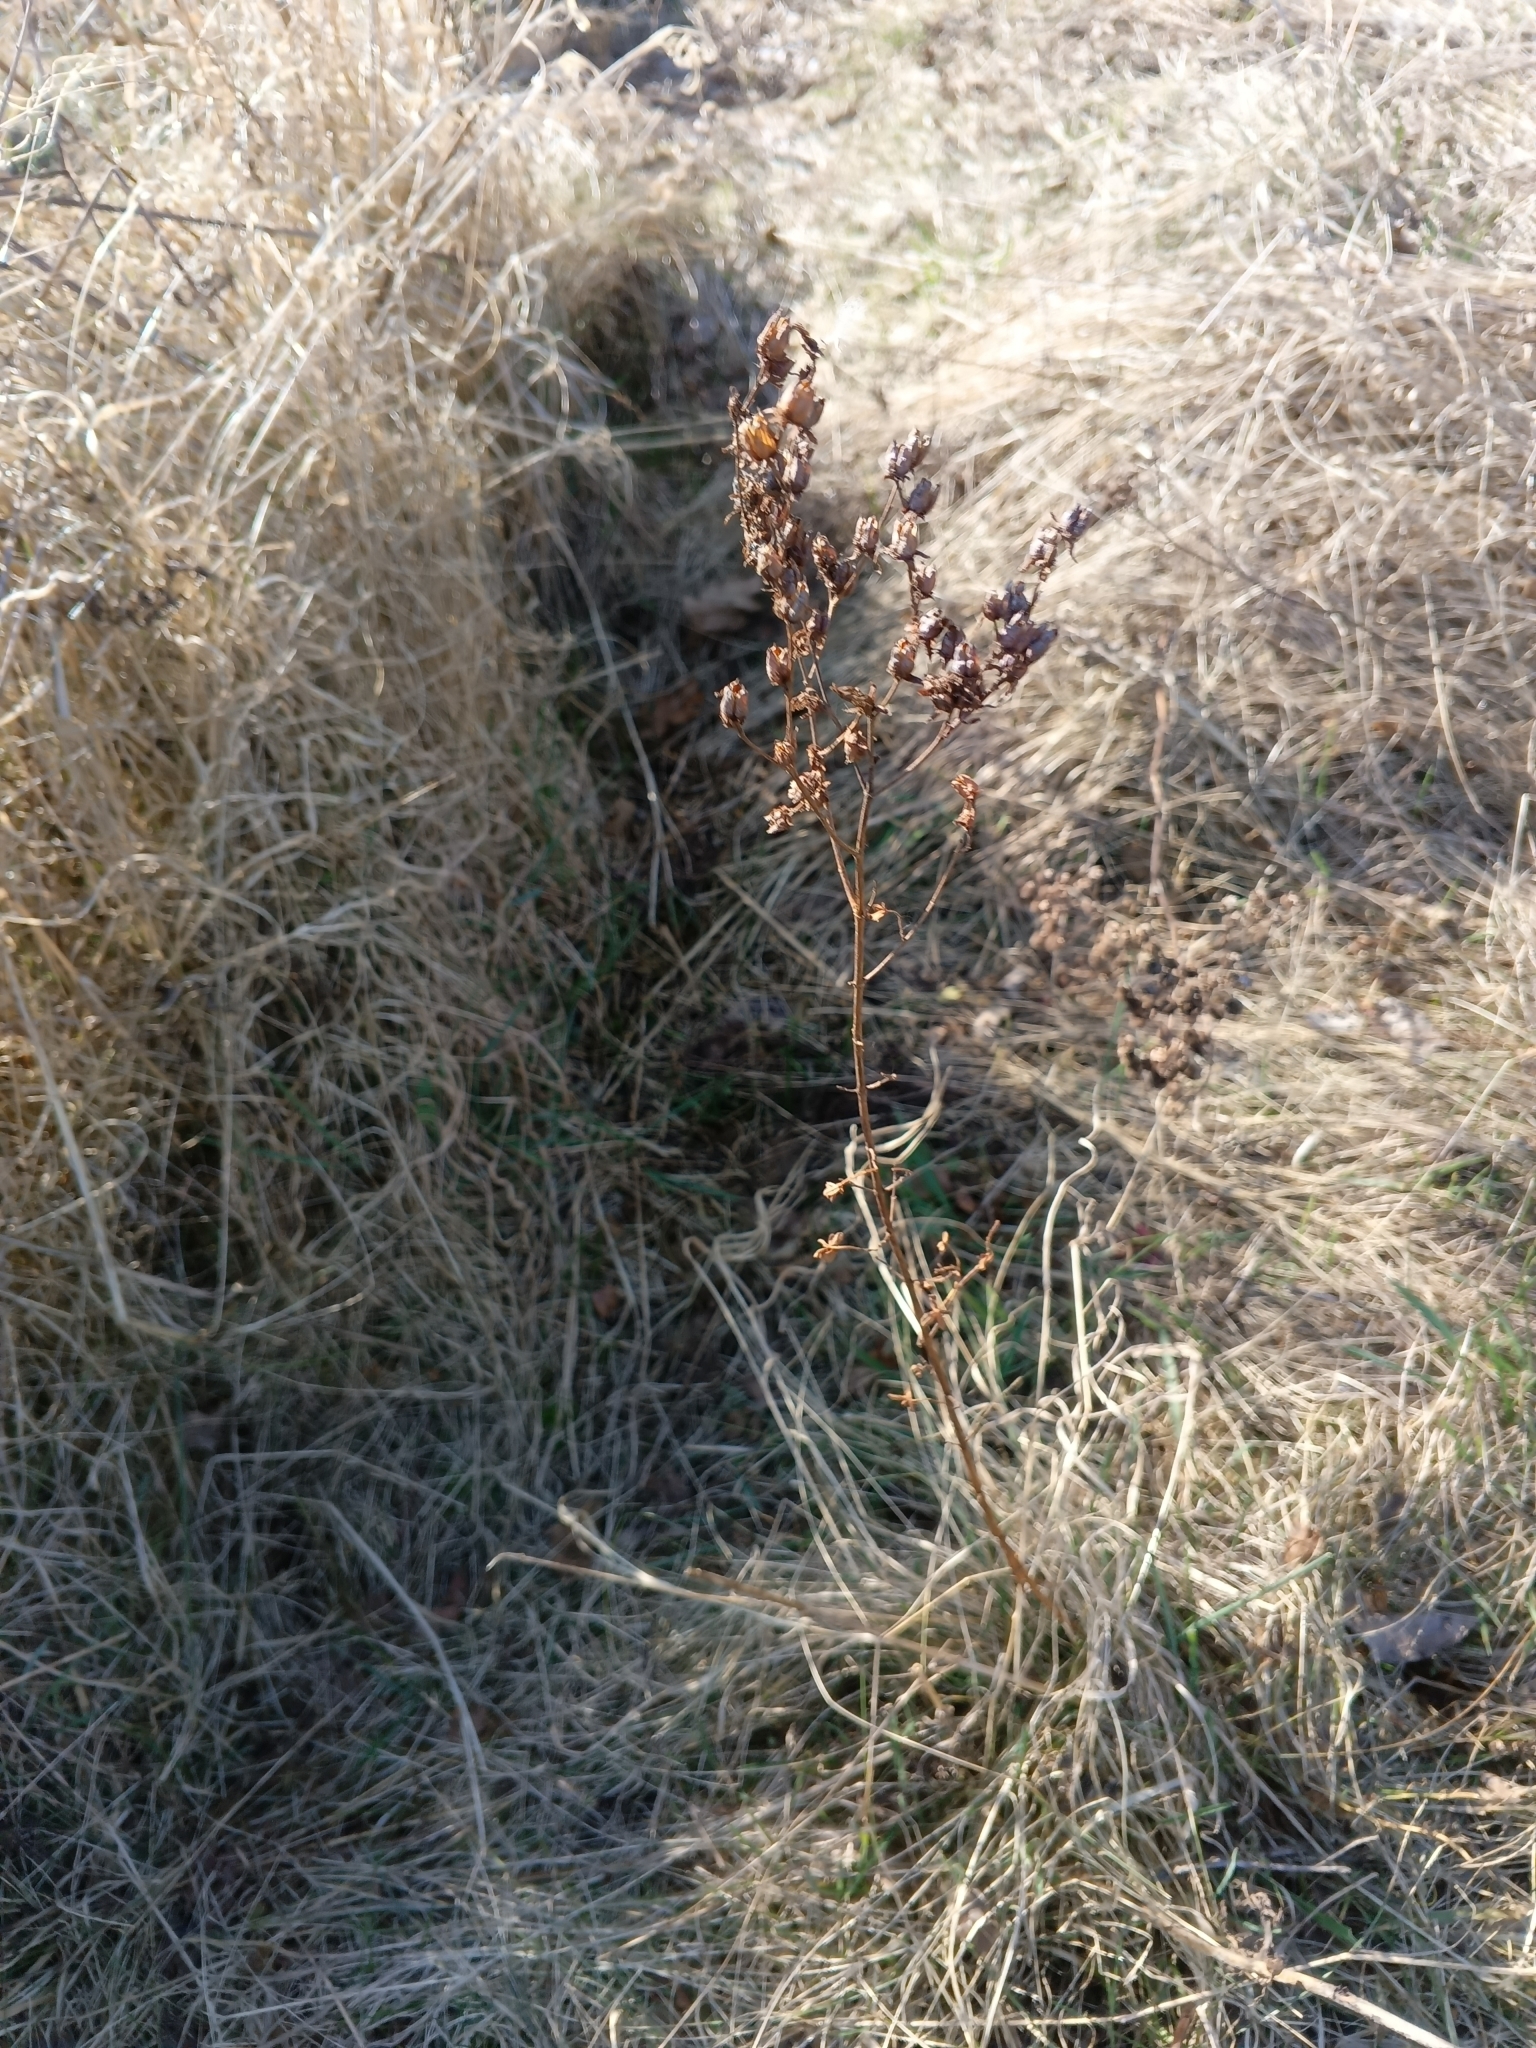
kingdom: Plantae
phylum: Tracheophyta
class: Magnoliopsida
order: Malpighiales
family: Hypericaceae
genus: Hypericum
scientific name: Hypericum perforatum
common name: Common st. johnswort
